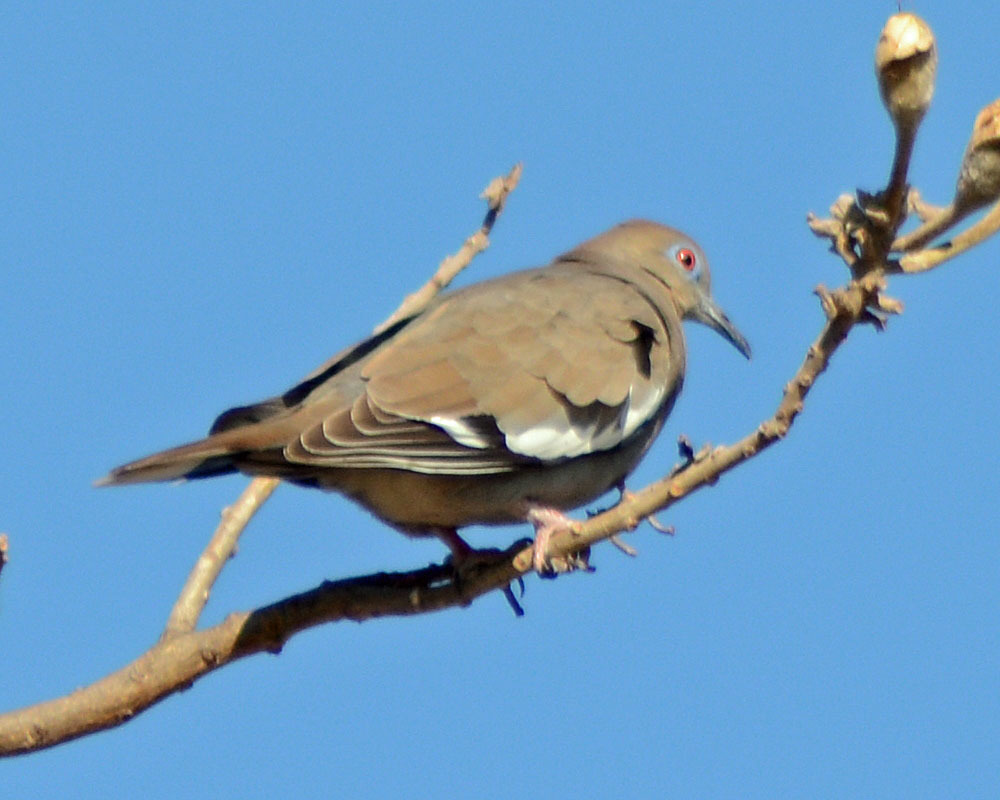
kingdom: Animalia
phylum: Chordata
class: Aves
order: Columbiformes
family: Columbidae
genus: Zenaida
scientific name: Zenaida asiatica
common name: White-winged dove
